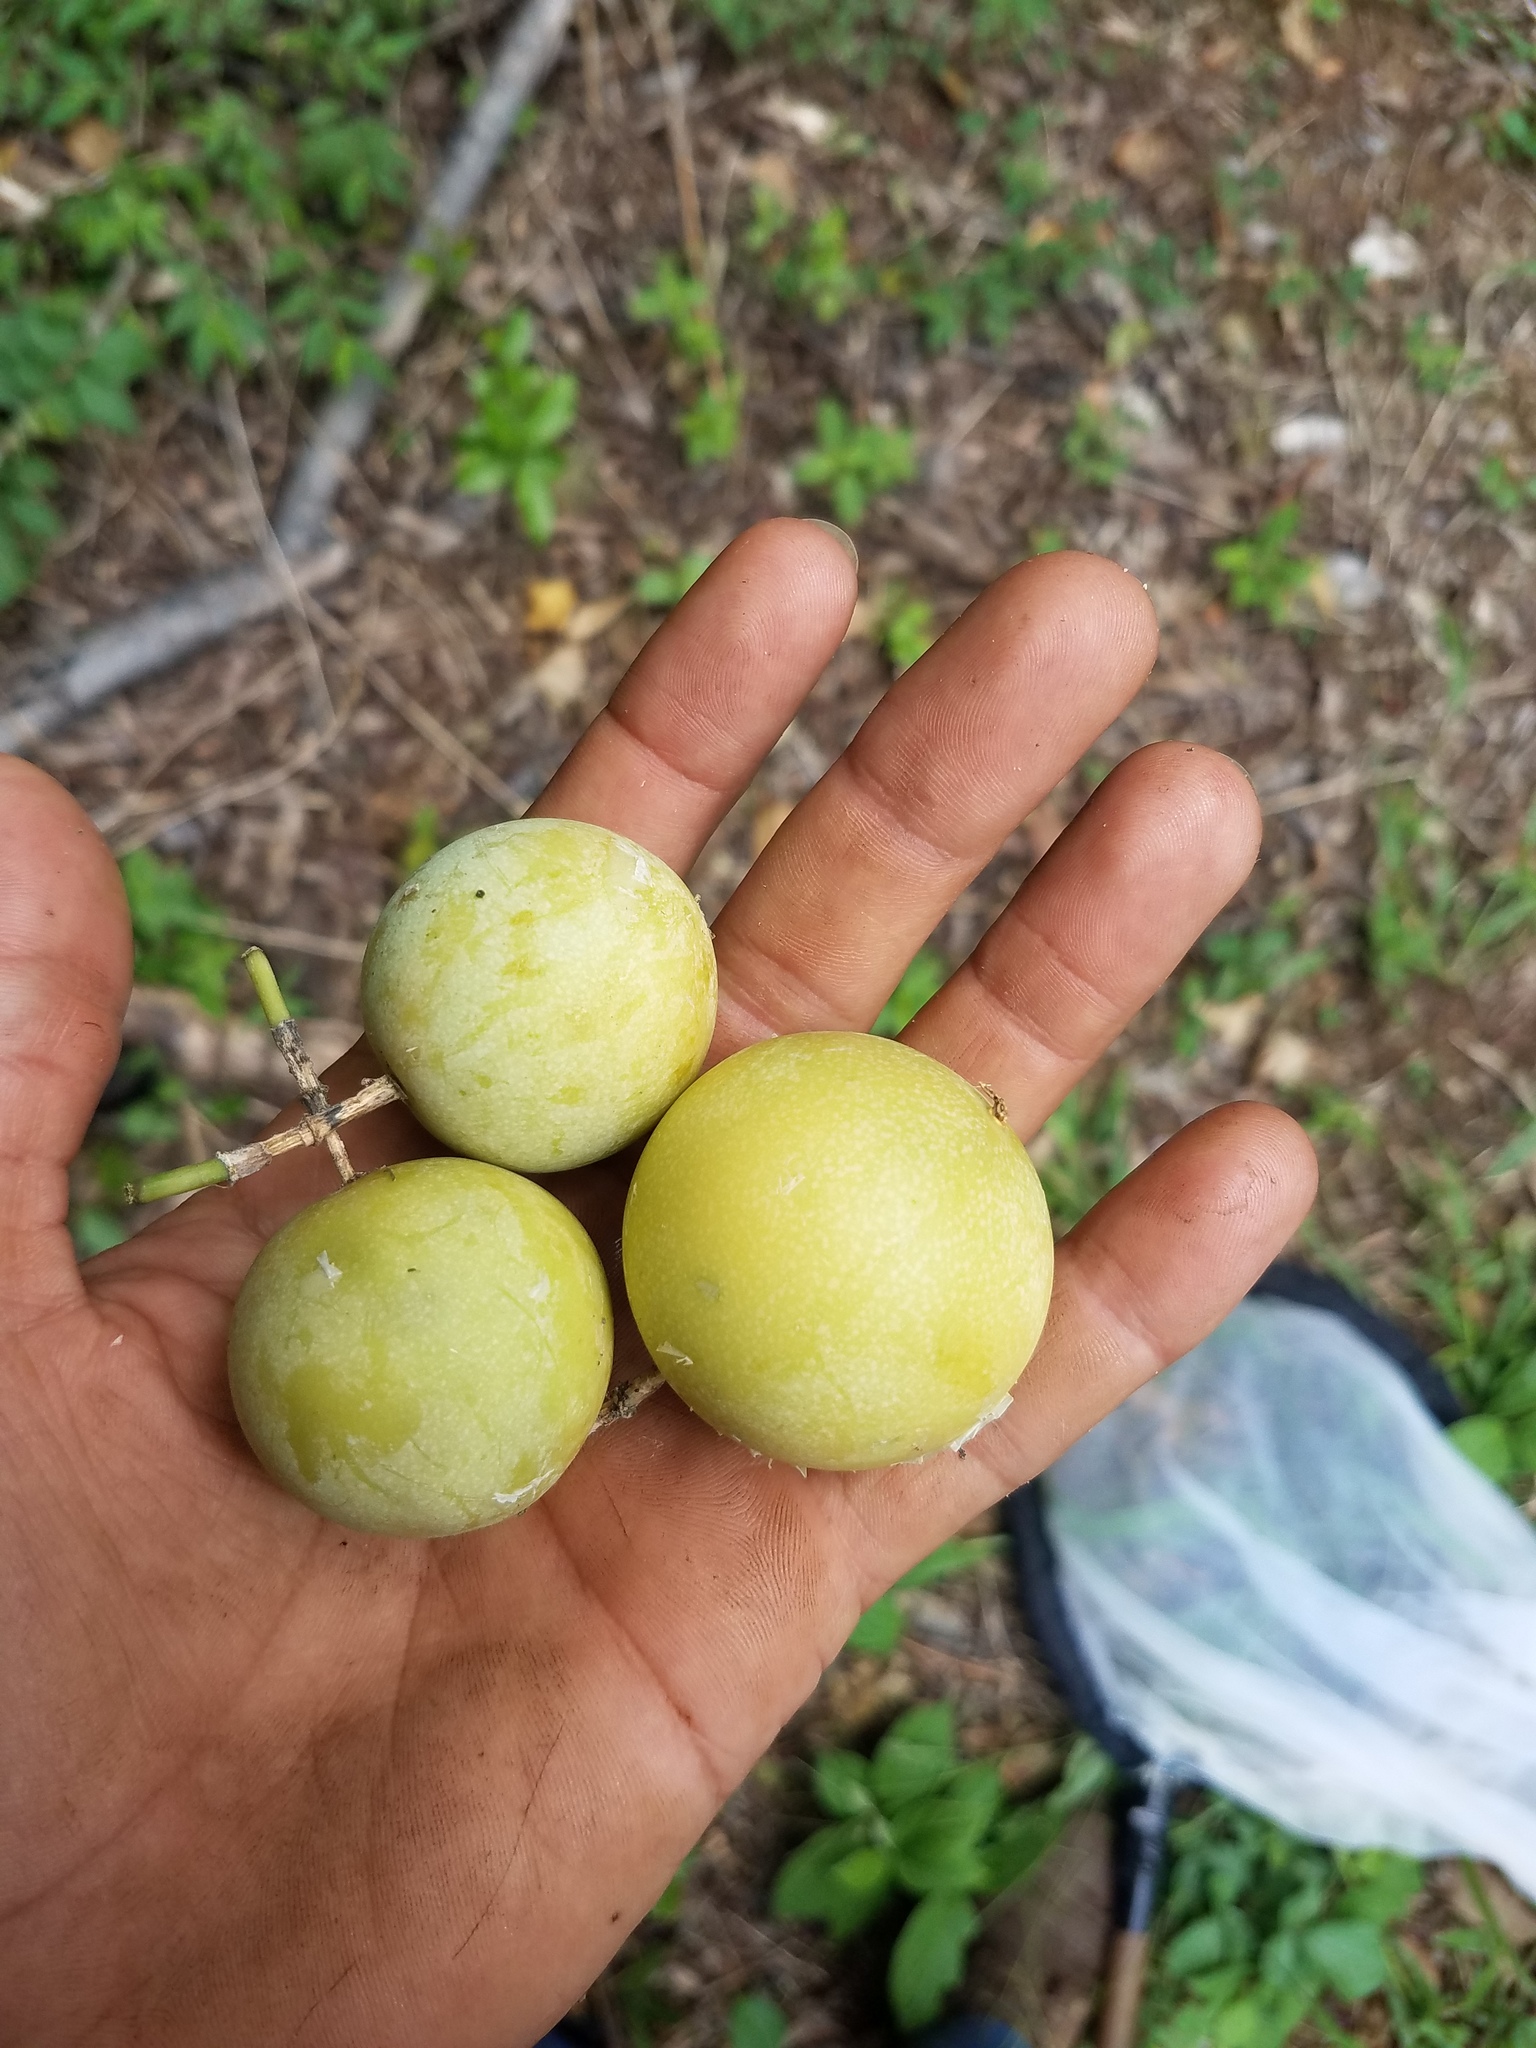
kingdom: Plantae
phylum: Tracheophyta
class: Magnoliopsida
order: Malpighiales
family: Passifloraceae
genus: Passiflora
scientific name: Passiflora platyloba
